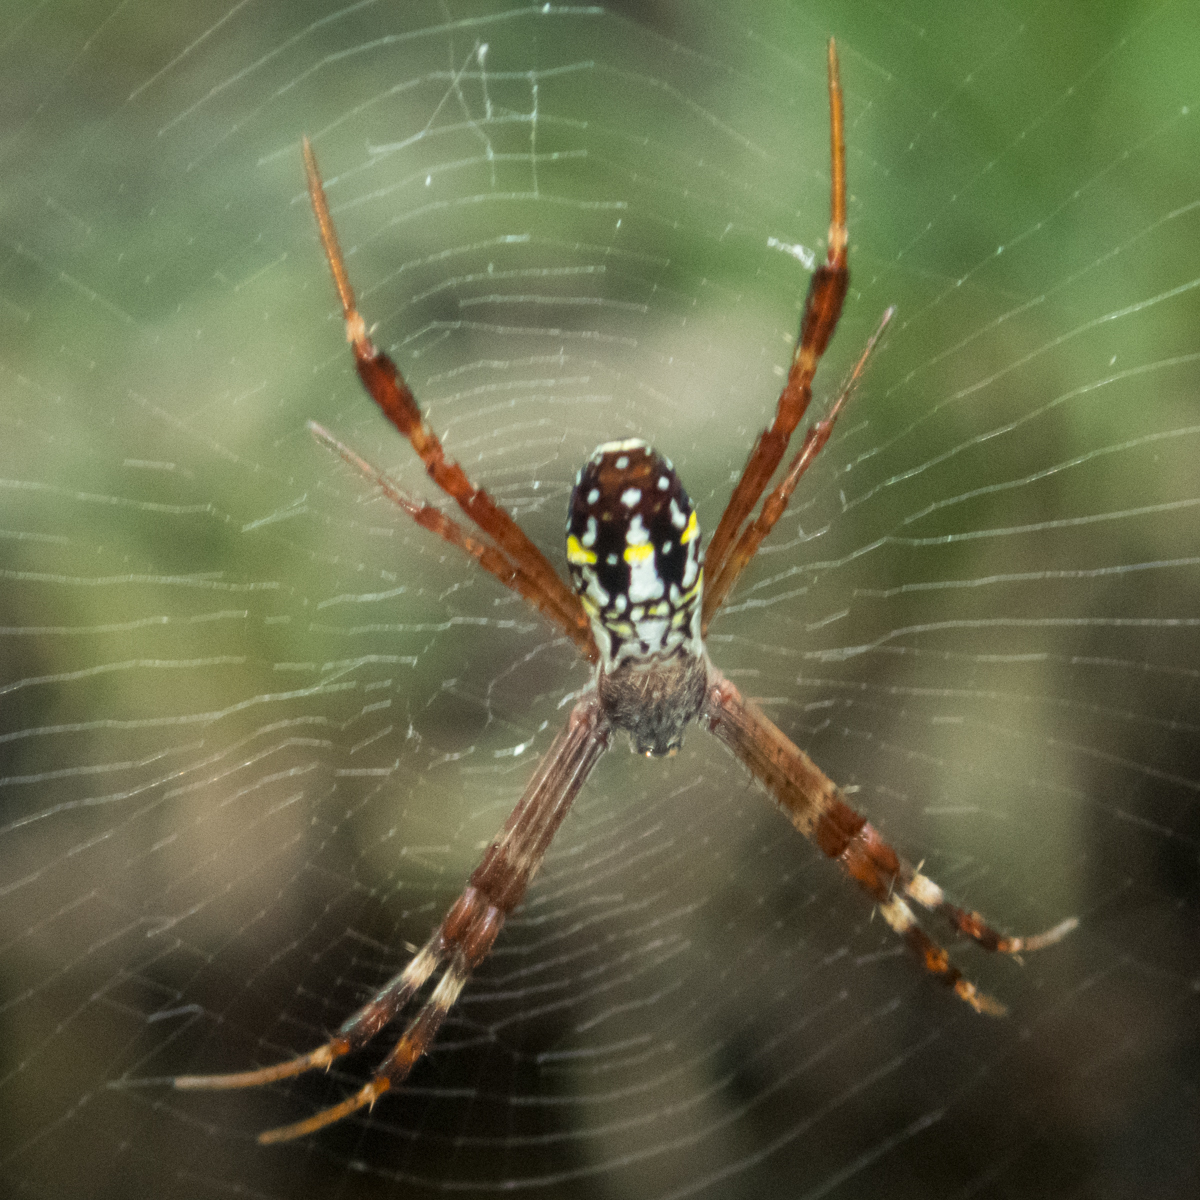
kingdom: Animalia
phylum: Arthropoda
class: Arachnida
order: Araneae
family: Araneidae
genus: Argiope
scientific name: Argiope dang
